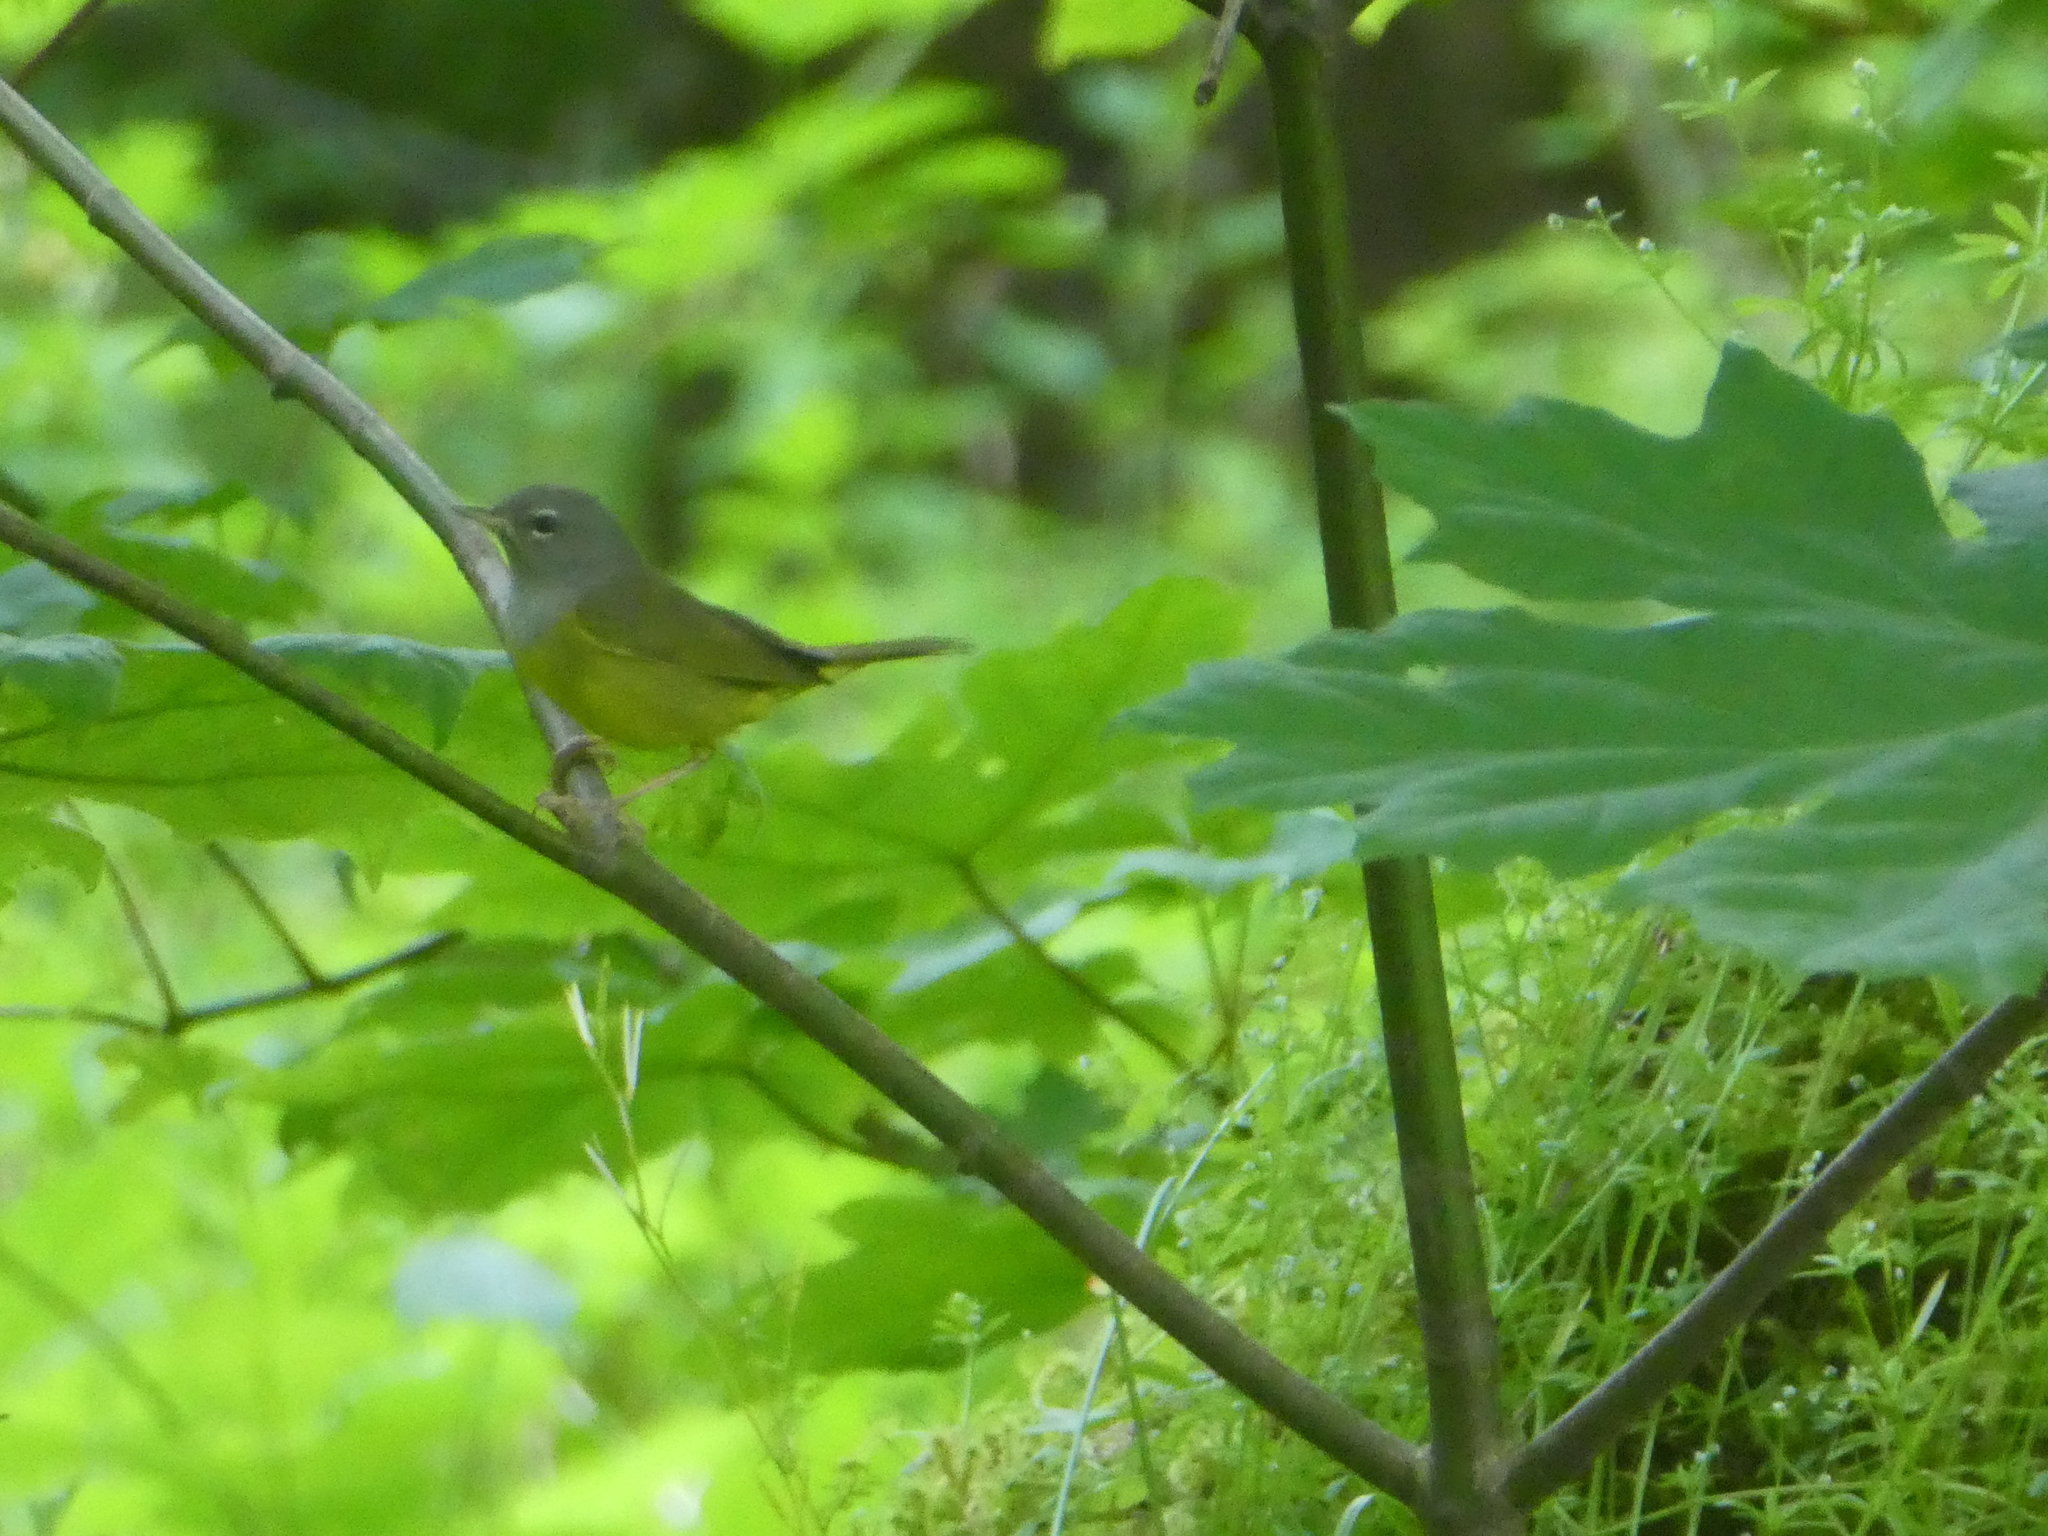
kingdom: Animalia
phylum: Chordata
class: Aves
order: Passeriformes
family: Parulidae
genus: Geothlypis
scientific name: Geothlypis tolmiei
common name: Macgillivray's warbler
